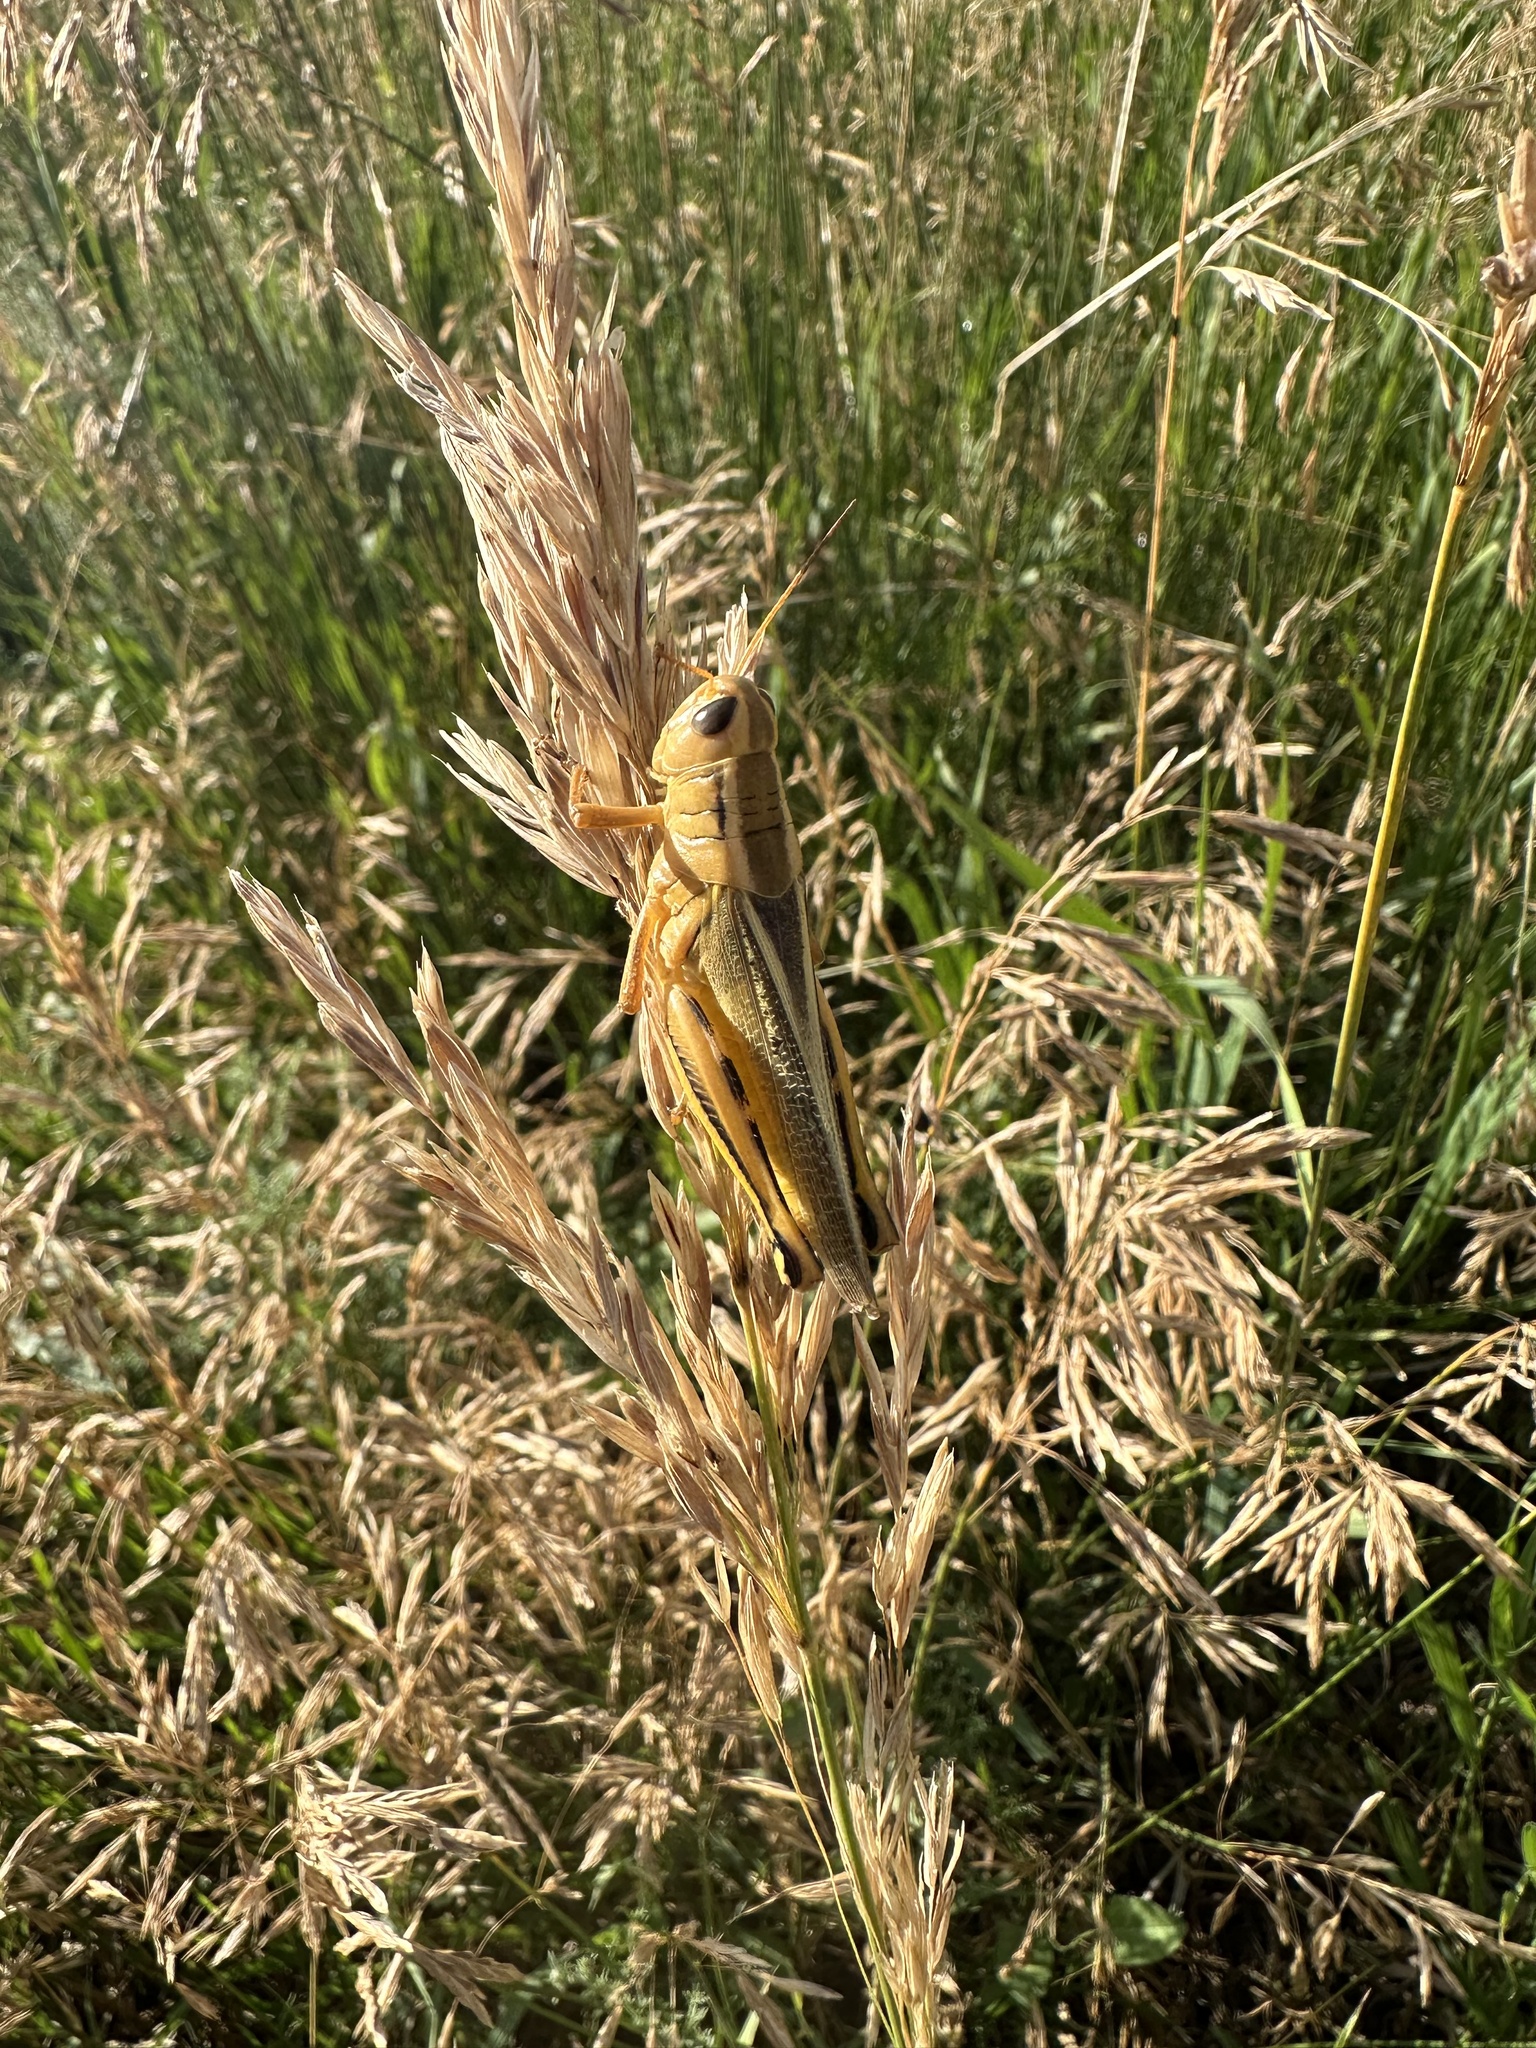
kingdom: Animalia
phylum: Arthropoda
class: Insecta
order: Orthoptera
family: Acrididae
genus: Melanoplus
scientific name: Melanoplus bivittatus
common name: Two-striped grasshopper
